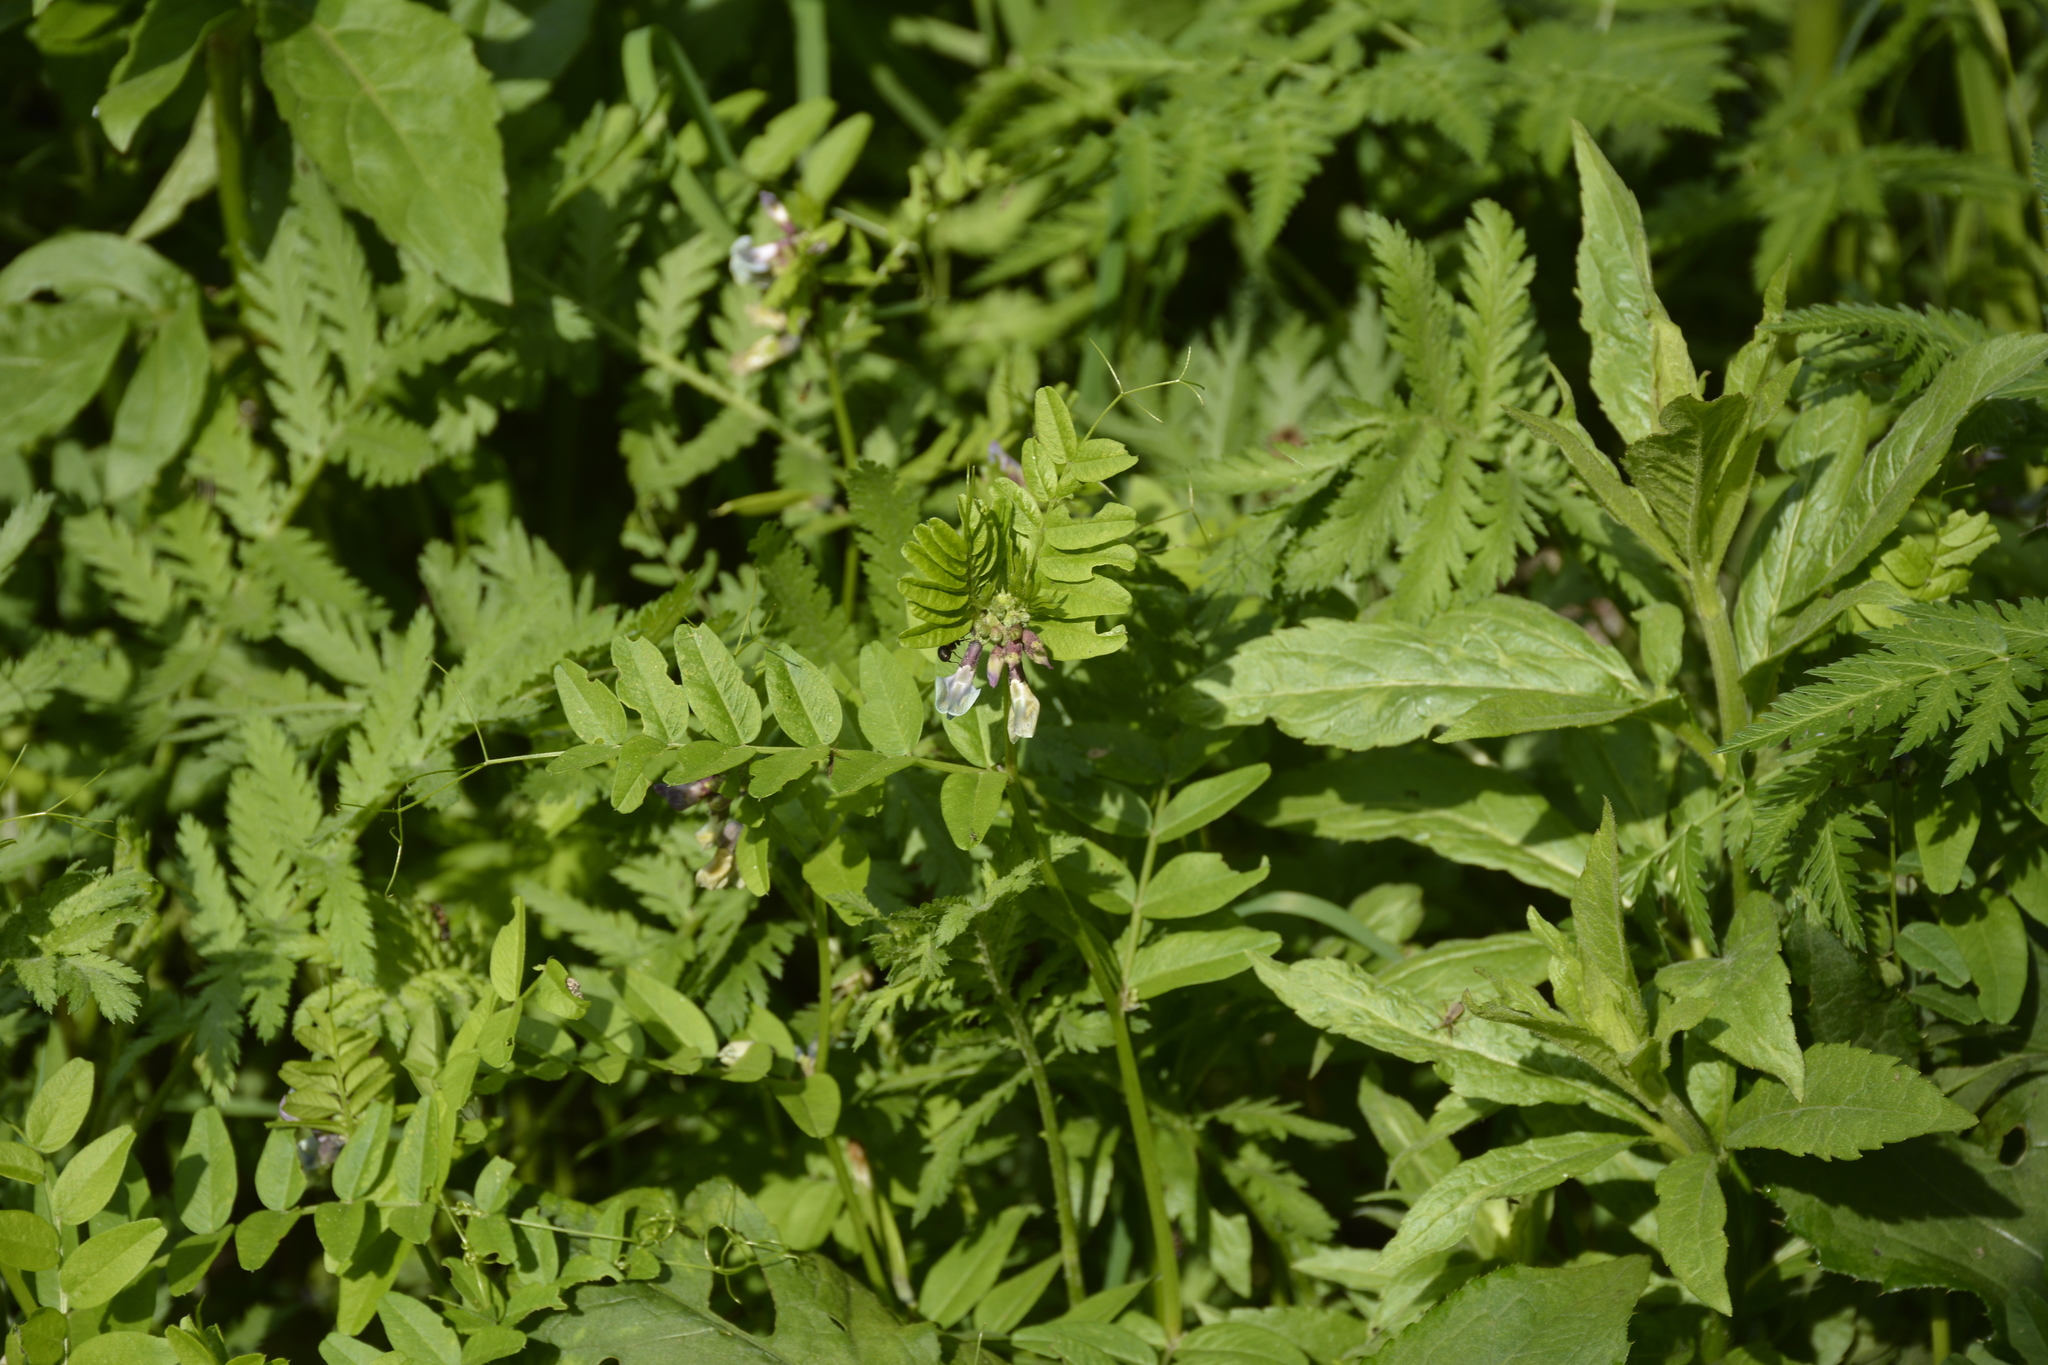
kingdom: Plantae
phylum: Tracheophyta
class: Magnoliopsida
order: Fabales
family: Fabaceae
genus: Vicia
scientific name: Vicia sepium
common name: Bush vetch
